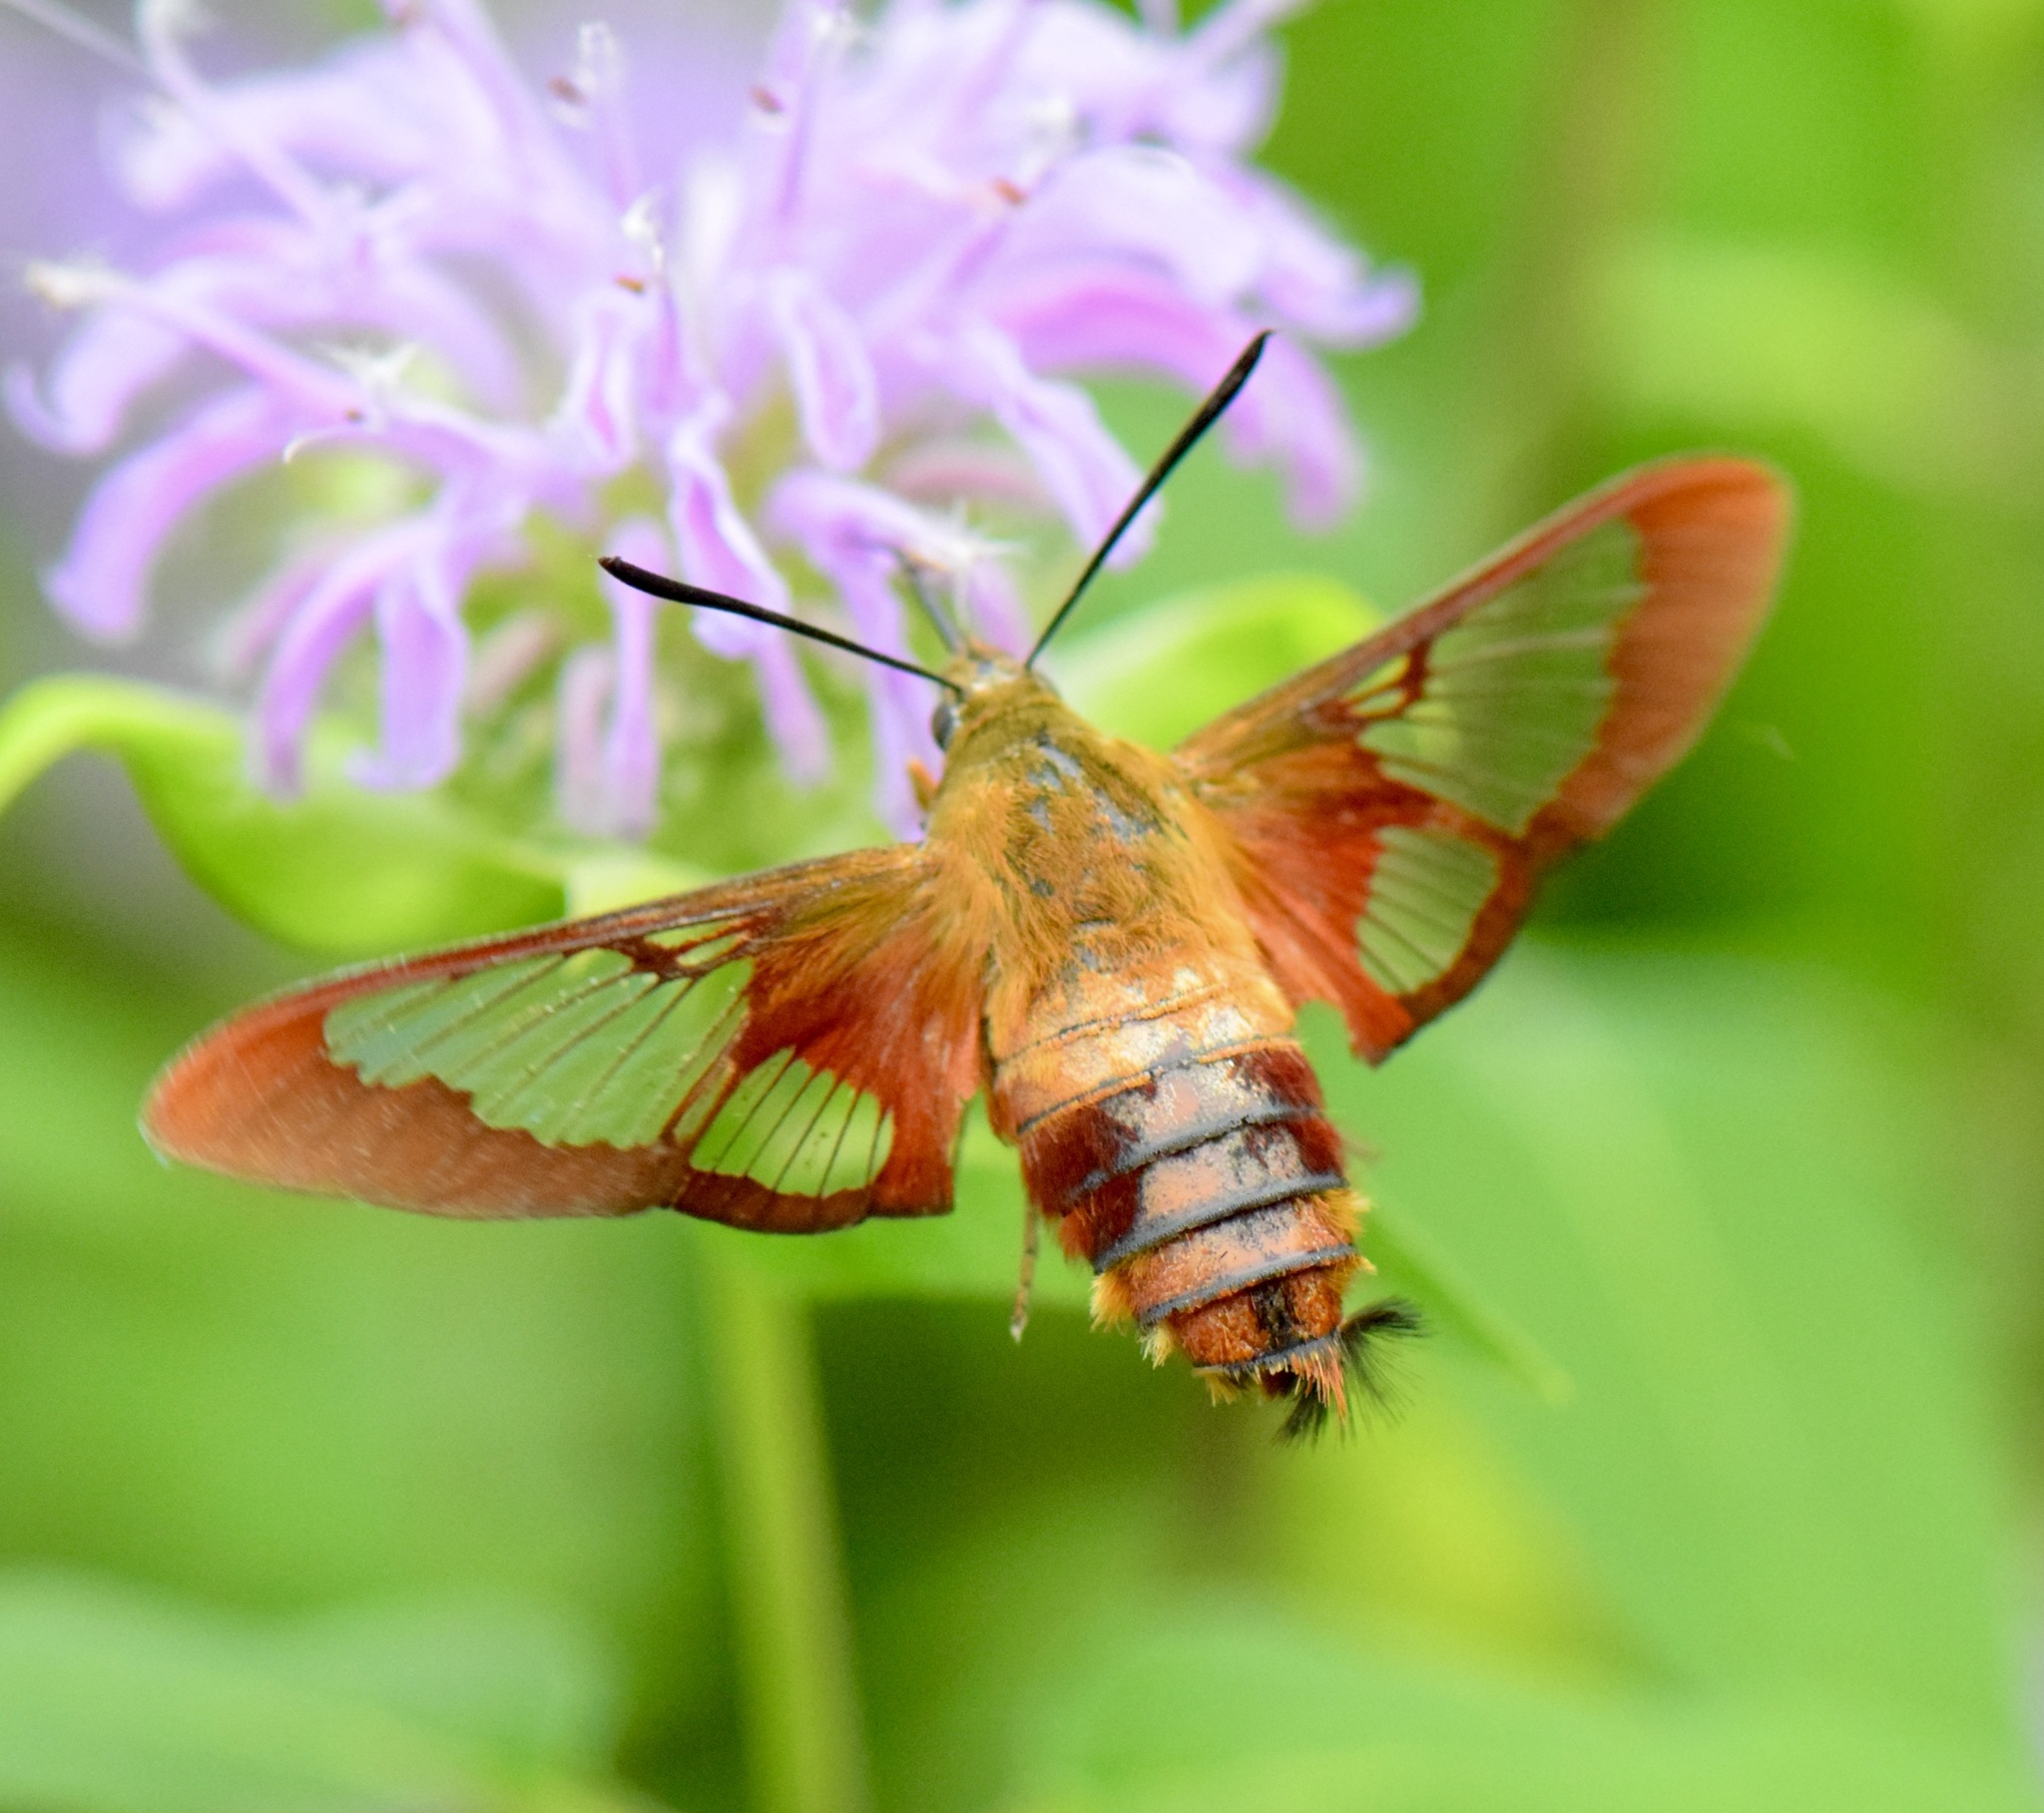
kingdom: Animalia
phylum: Arthropoda
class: Insecta
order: Lepidoptera
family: Sphingidae
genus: Hemaris
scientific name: Hemaris thysbe
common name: Common clear-wing
